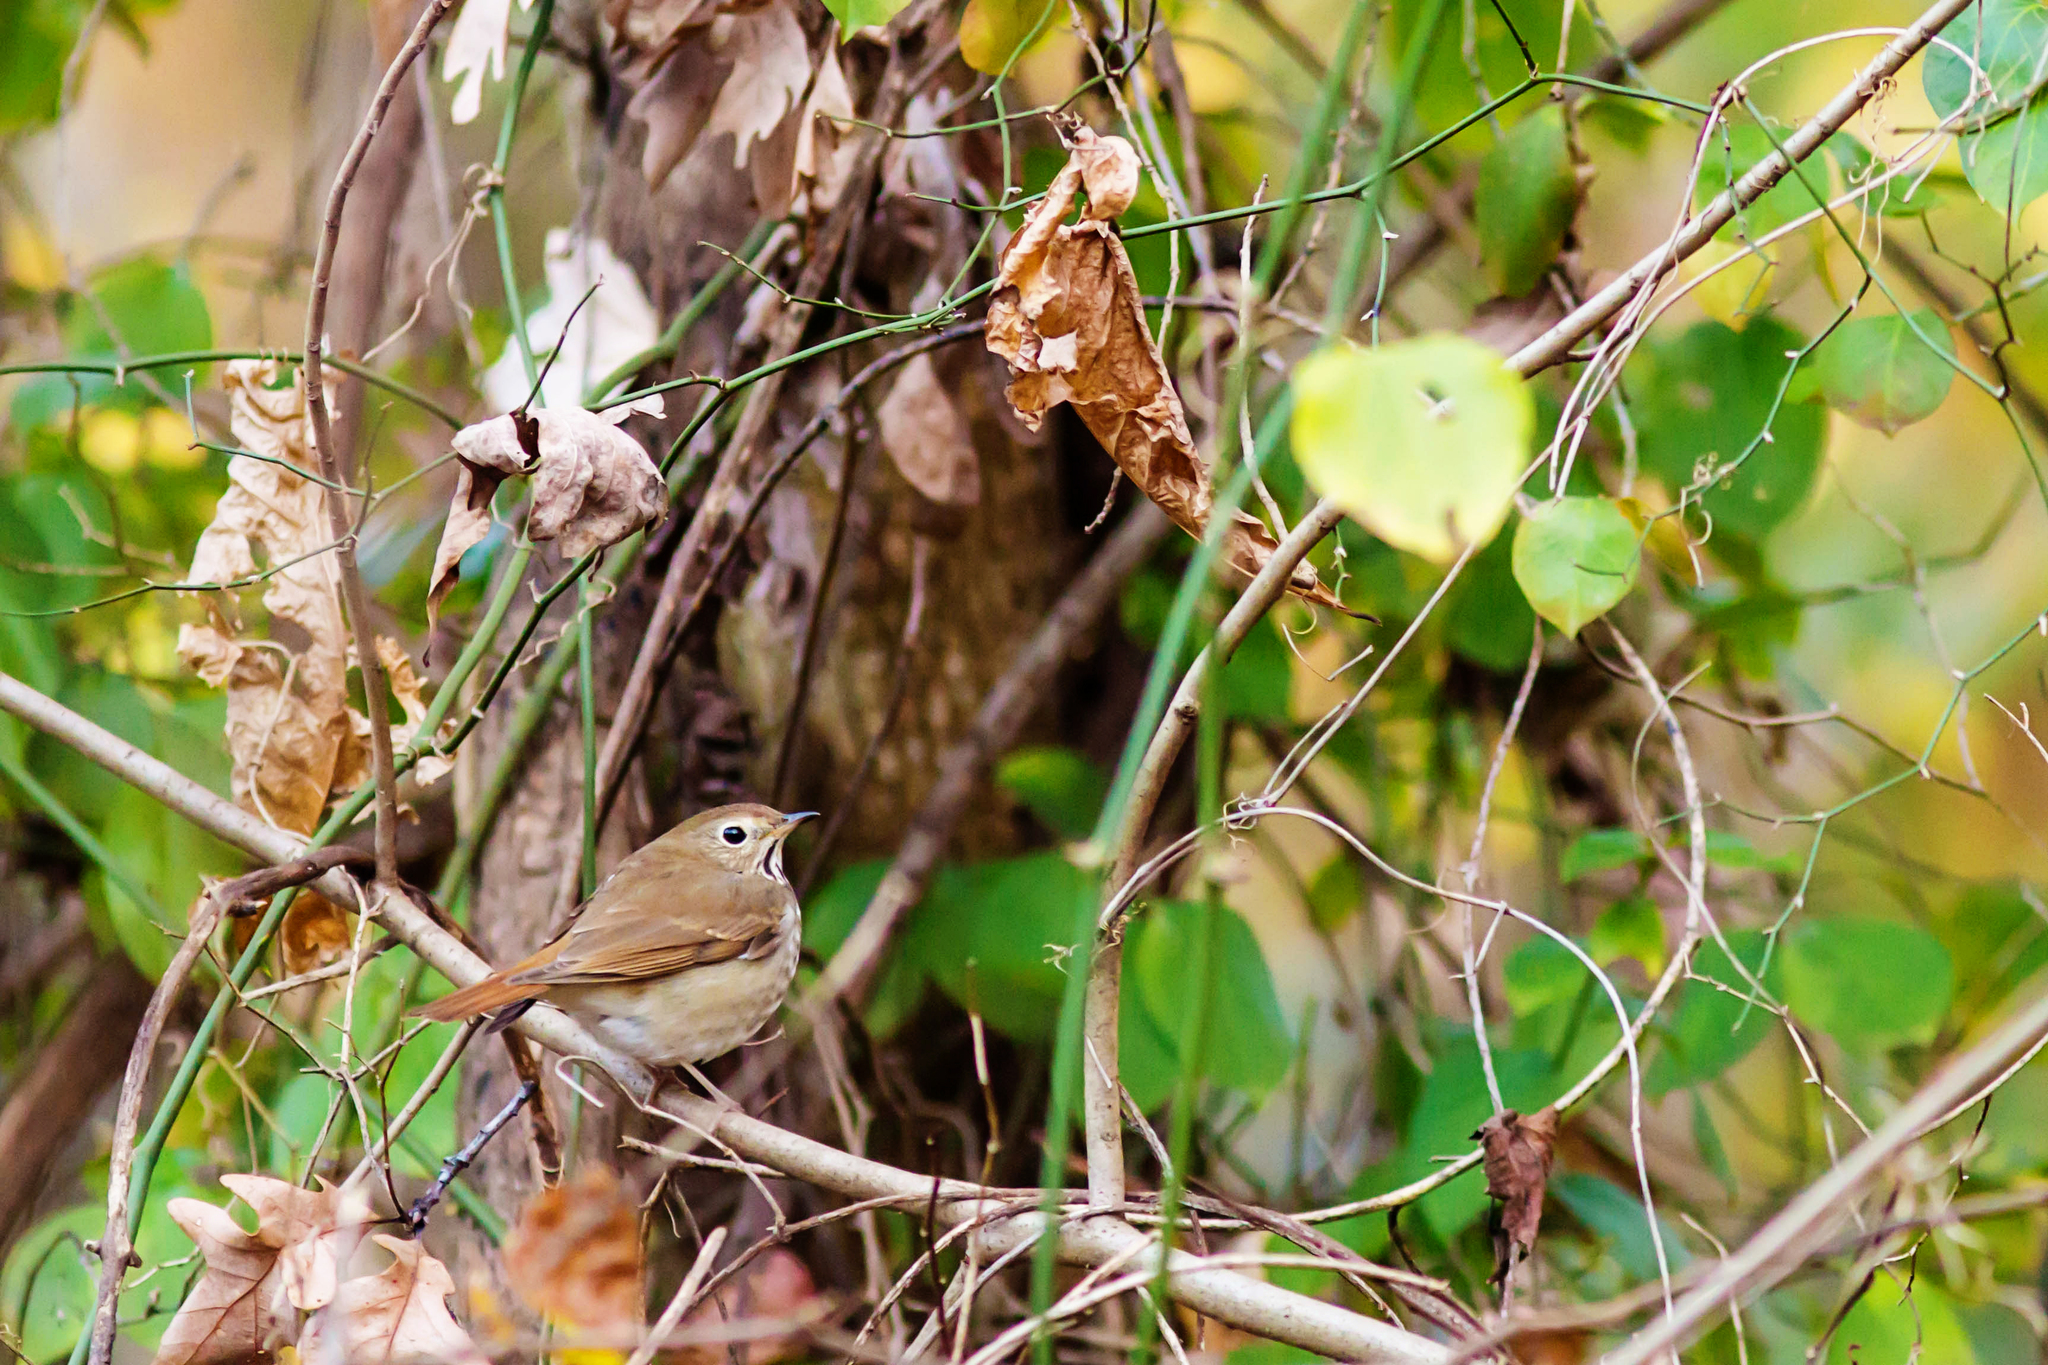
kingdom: Animalia
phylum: Chordata
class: Aves
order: Passeriformes
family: Turdidae
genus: Catharus
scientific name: Catharus guttatus
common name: Hermit thrush
